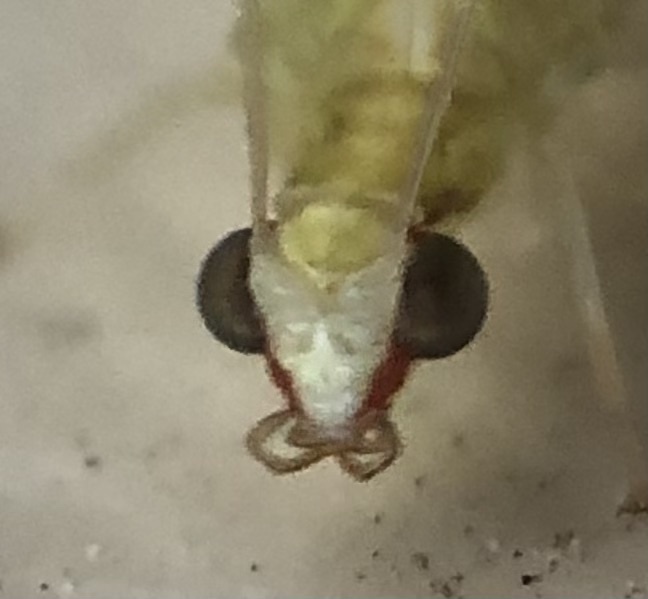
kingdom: Animalia
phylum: Arthropoda
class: Insecta
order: Neuroptera
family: Chrysopidae
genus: Chrysoperla
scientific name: Chrysoperla rufilabris
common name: Red-lipped green lacewing
